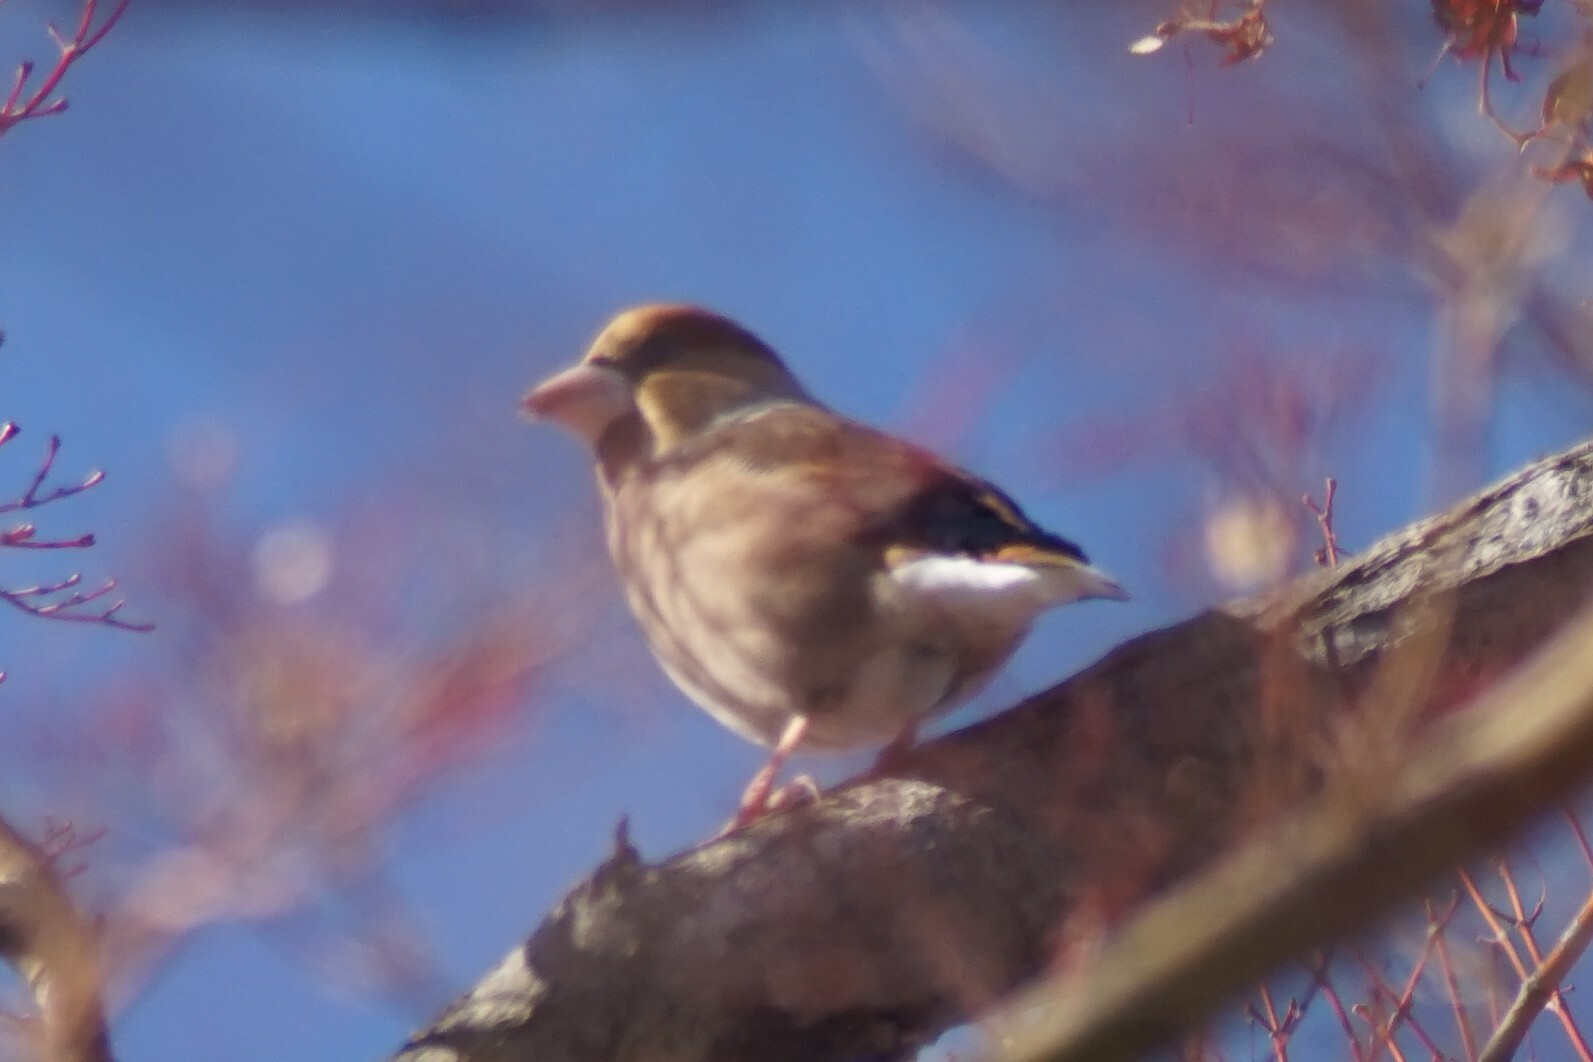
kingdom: Animalia
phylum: Chordata
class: Aves
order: Passeriformes
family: Fringillidae
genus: Coccothraustes
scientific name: Coccothraustes coccothraustes
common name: Hawfinch
